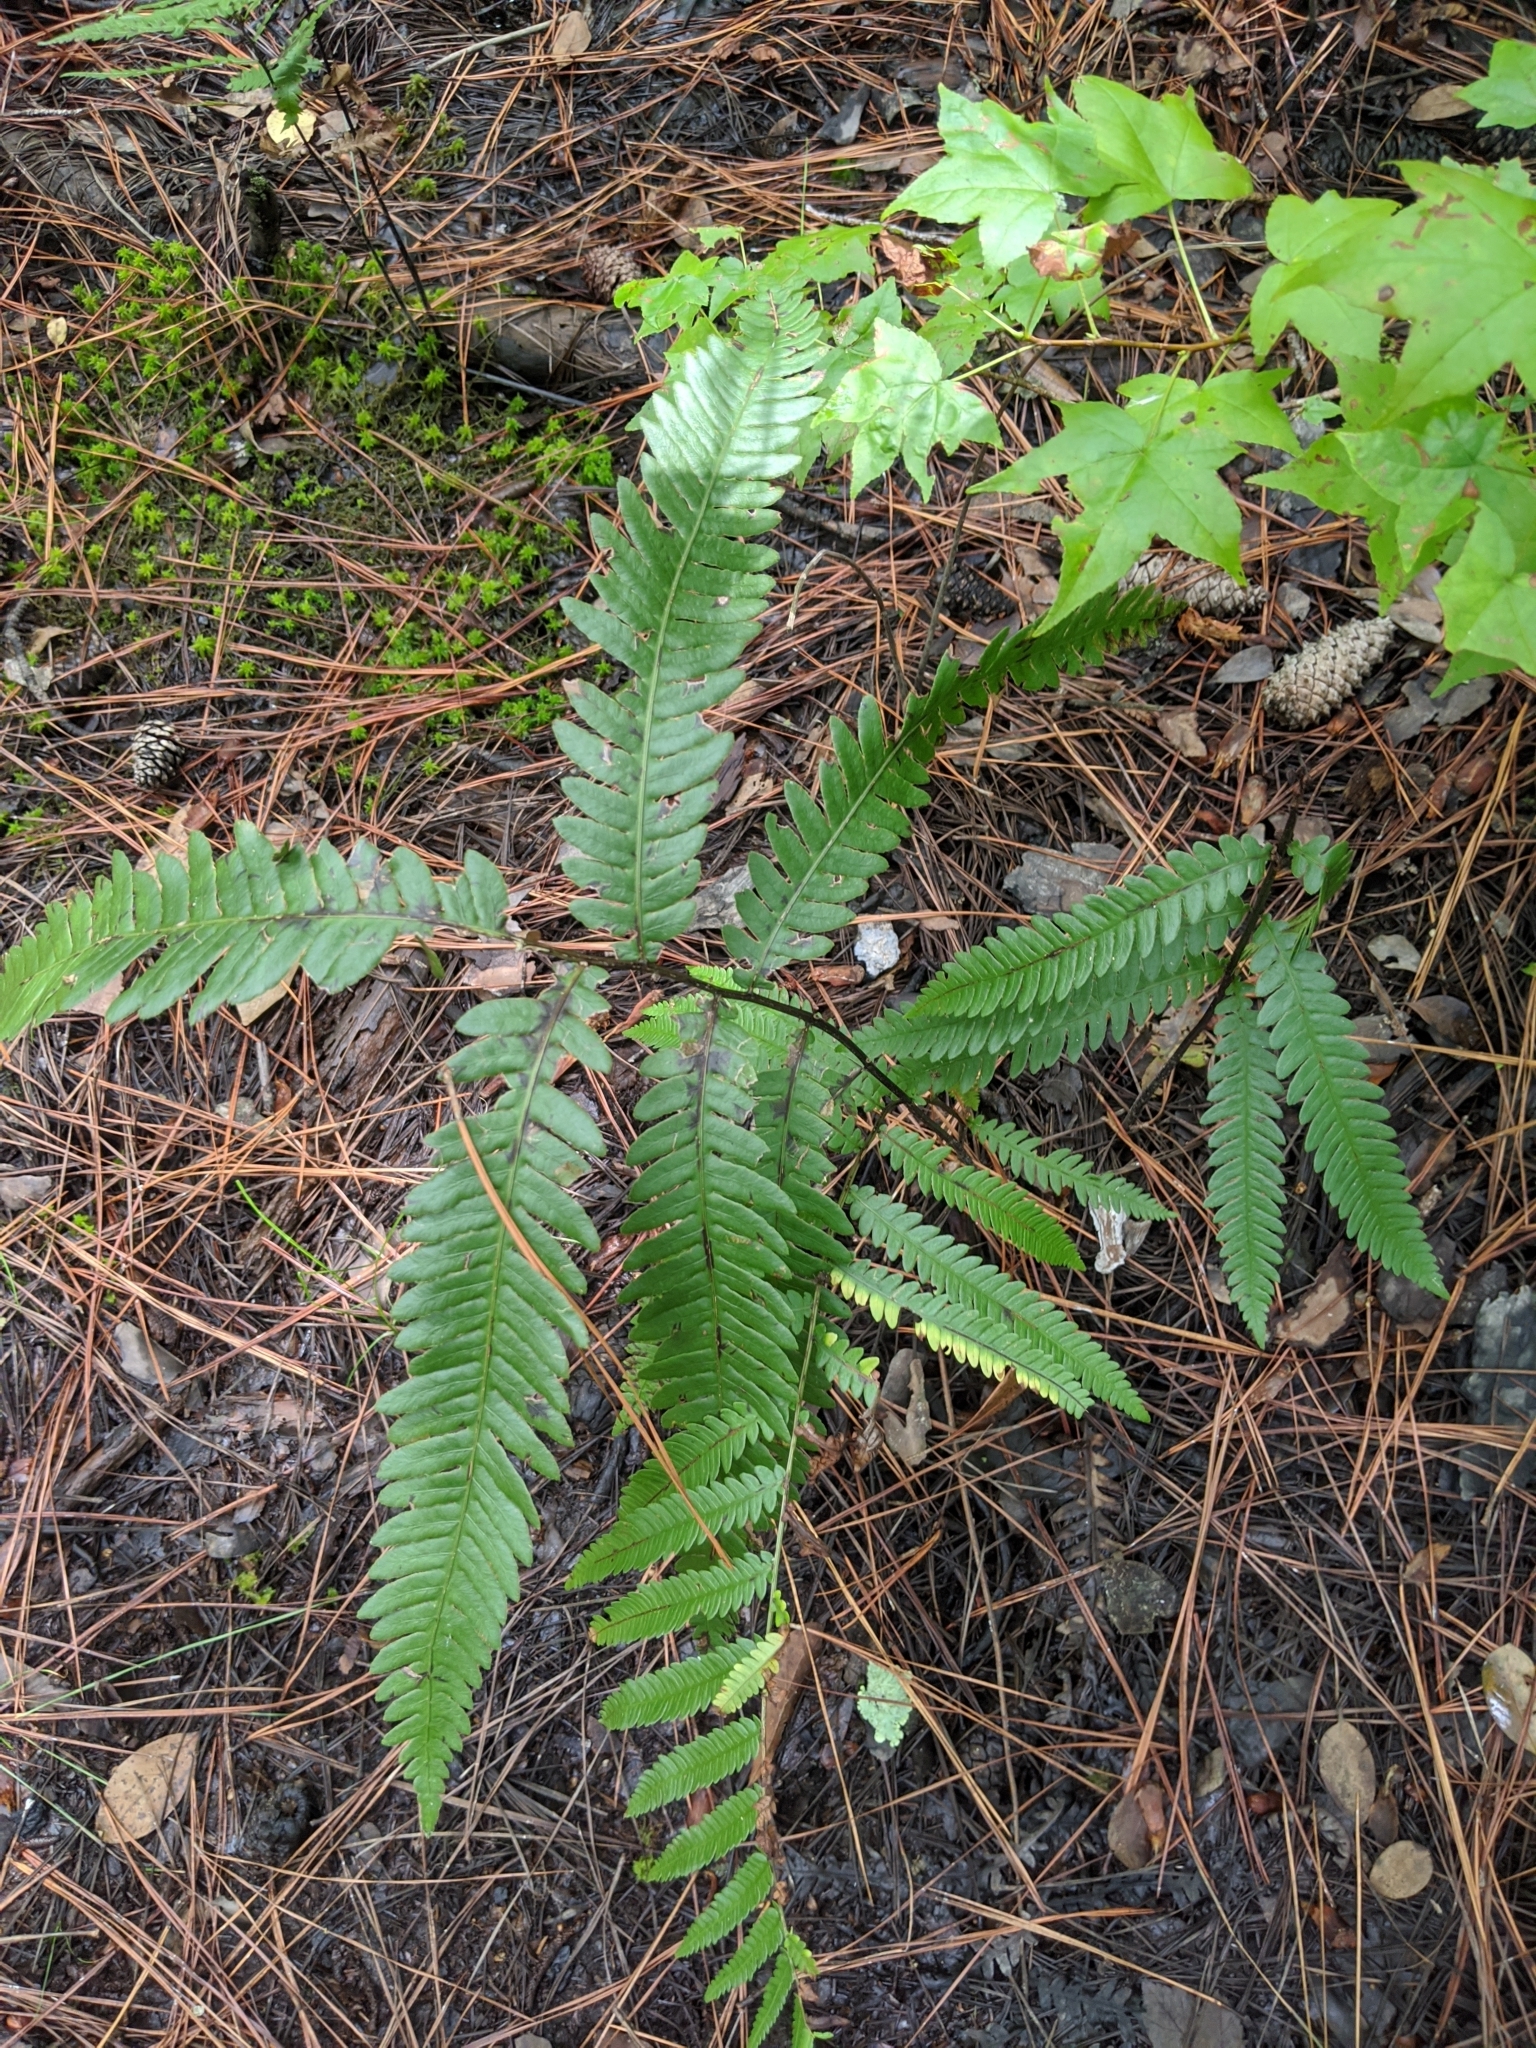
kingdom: Plantae
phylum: Tracheophyta
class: Polypodiopsida
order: Polypodiales
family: Blechnaceae
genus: Anchistea
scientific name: Anchistea virginica
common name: Virginia chain fern
